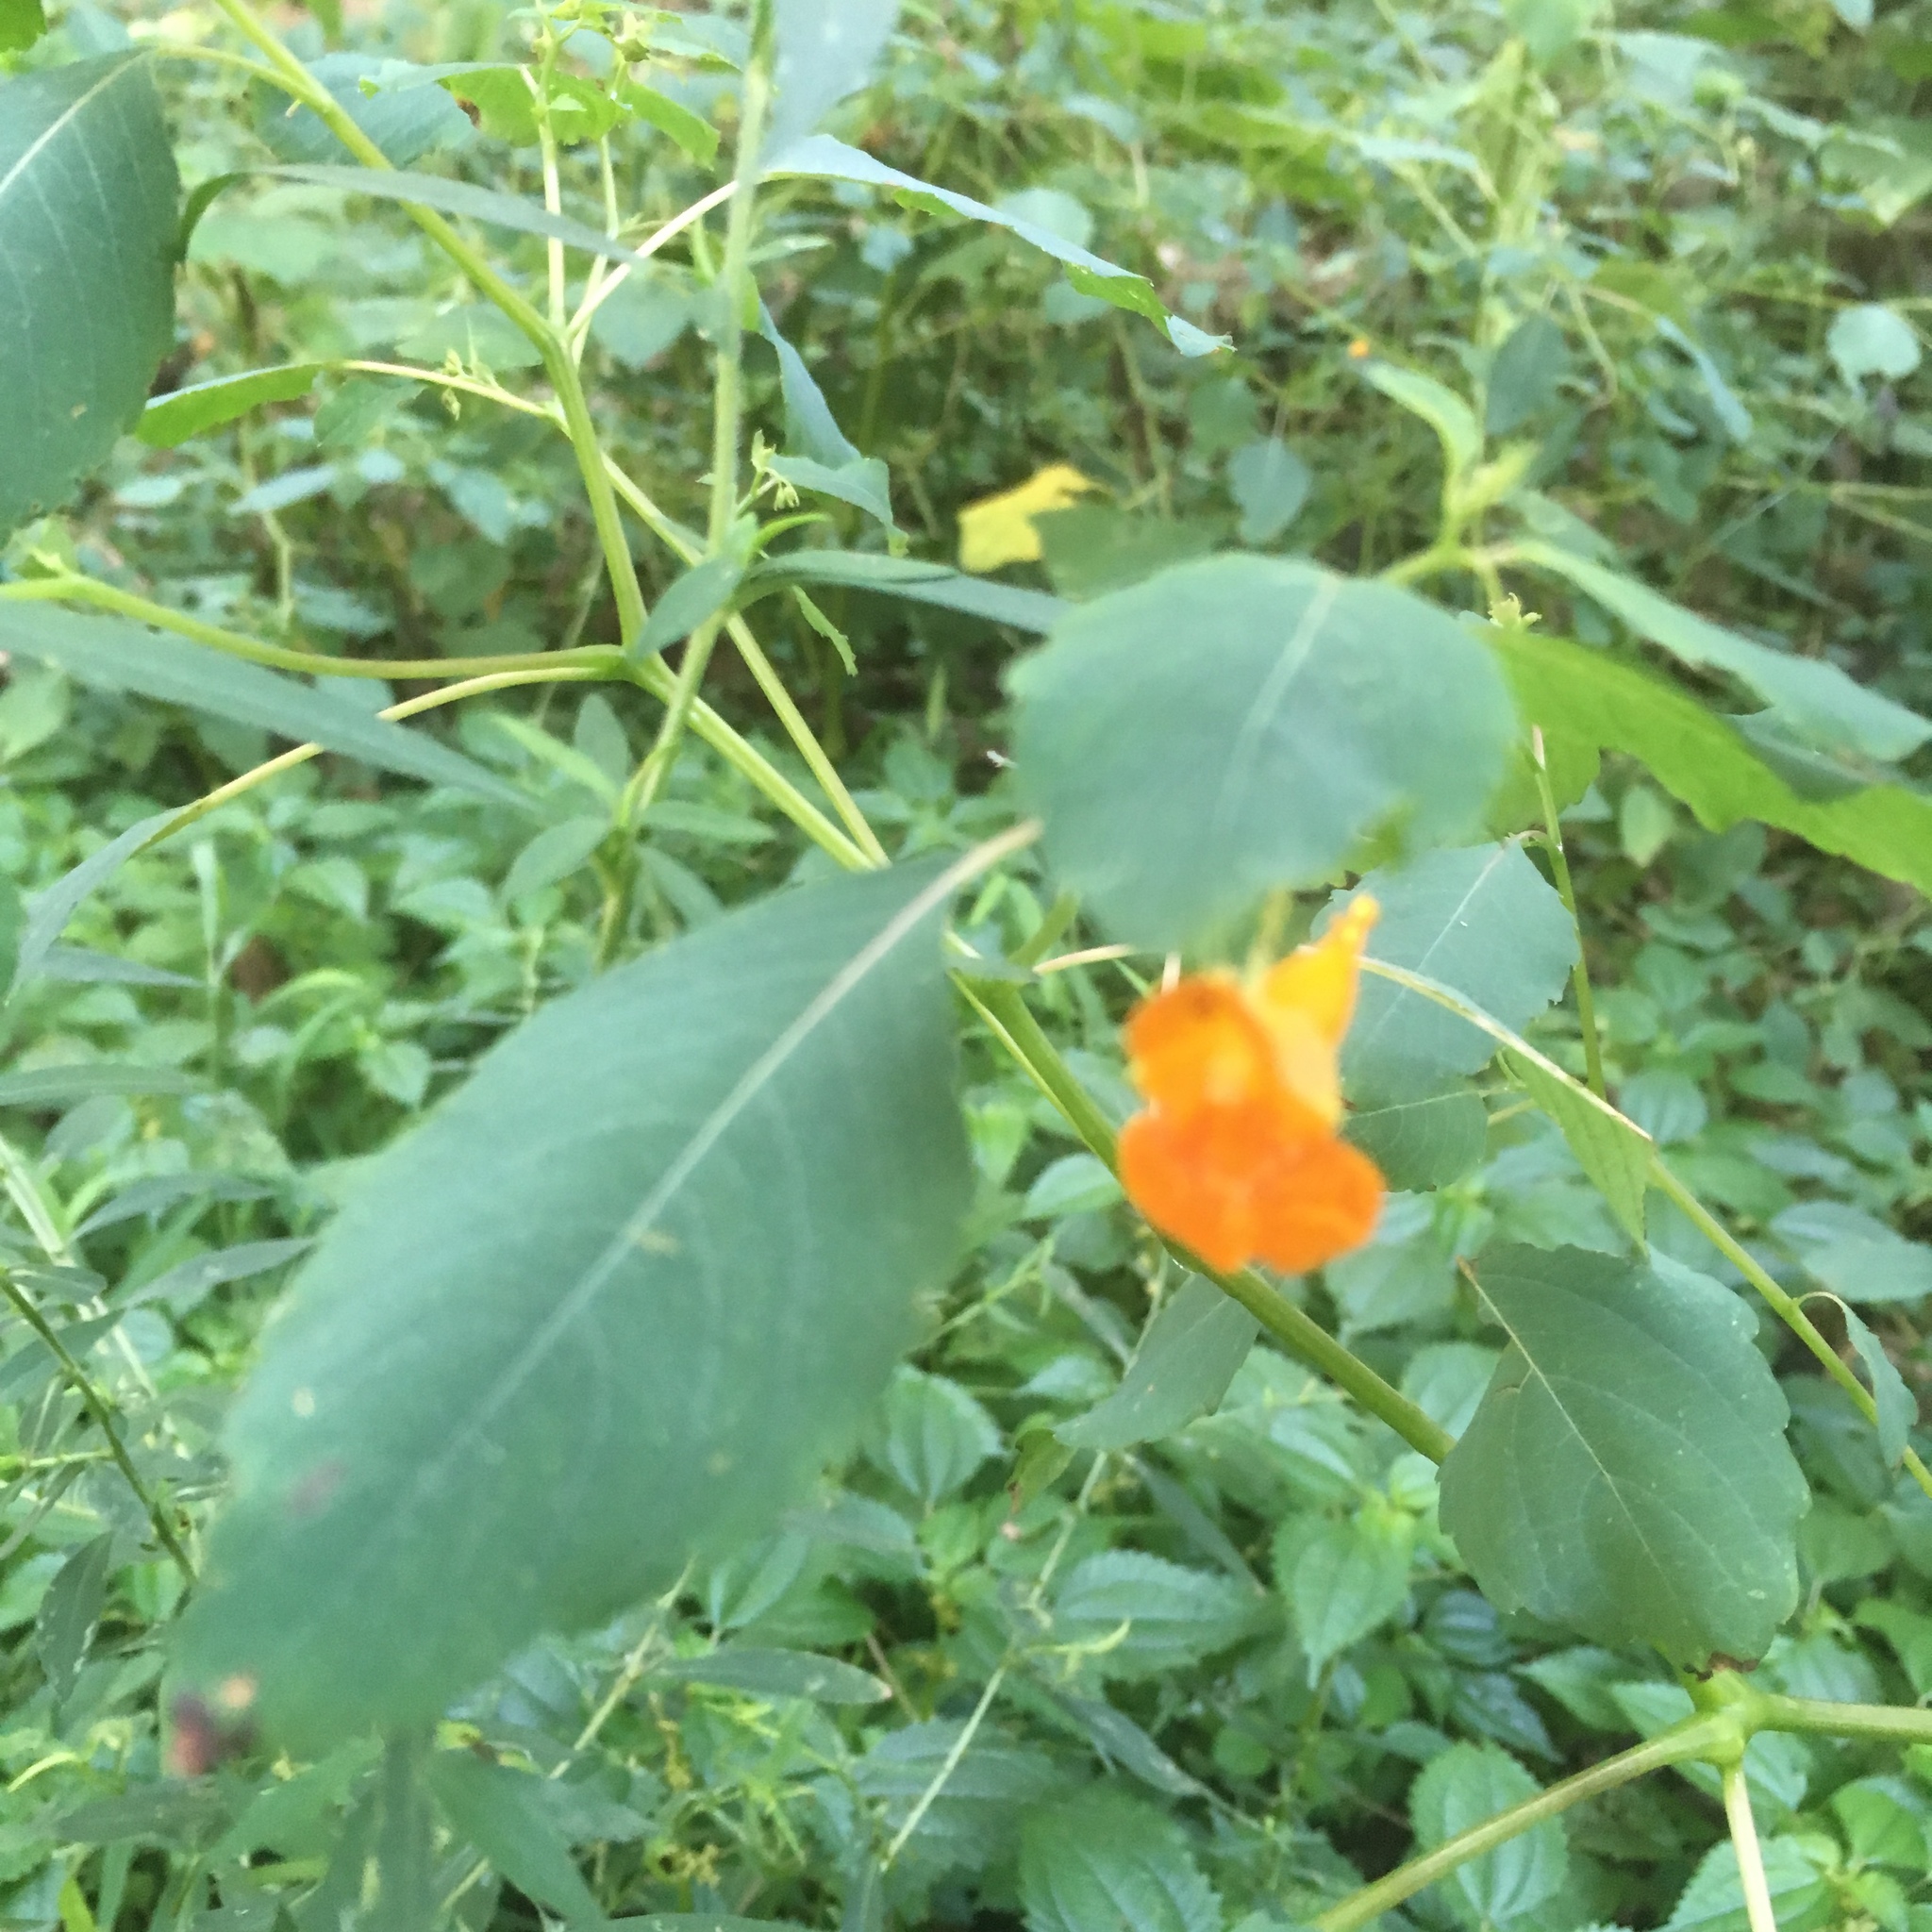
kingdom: Plantae
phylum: Tracheophyta
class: Magnoliopsida
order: Ericales
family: Balsaminaceae
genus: Impatiens
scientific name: Impatiens capensis
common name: Orange balsam
